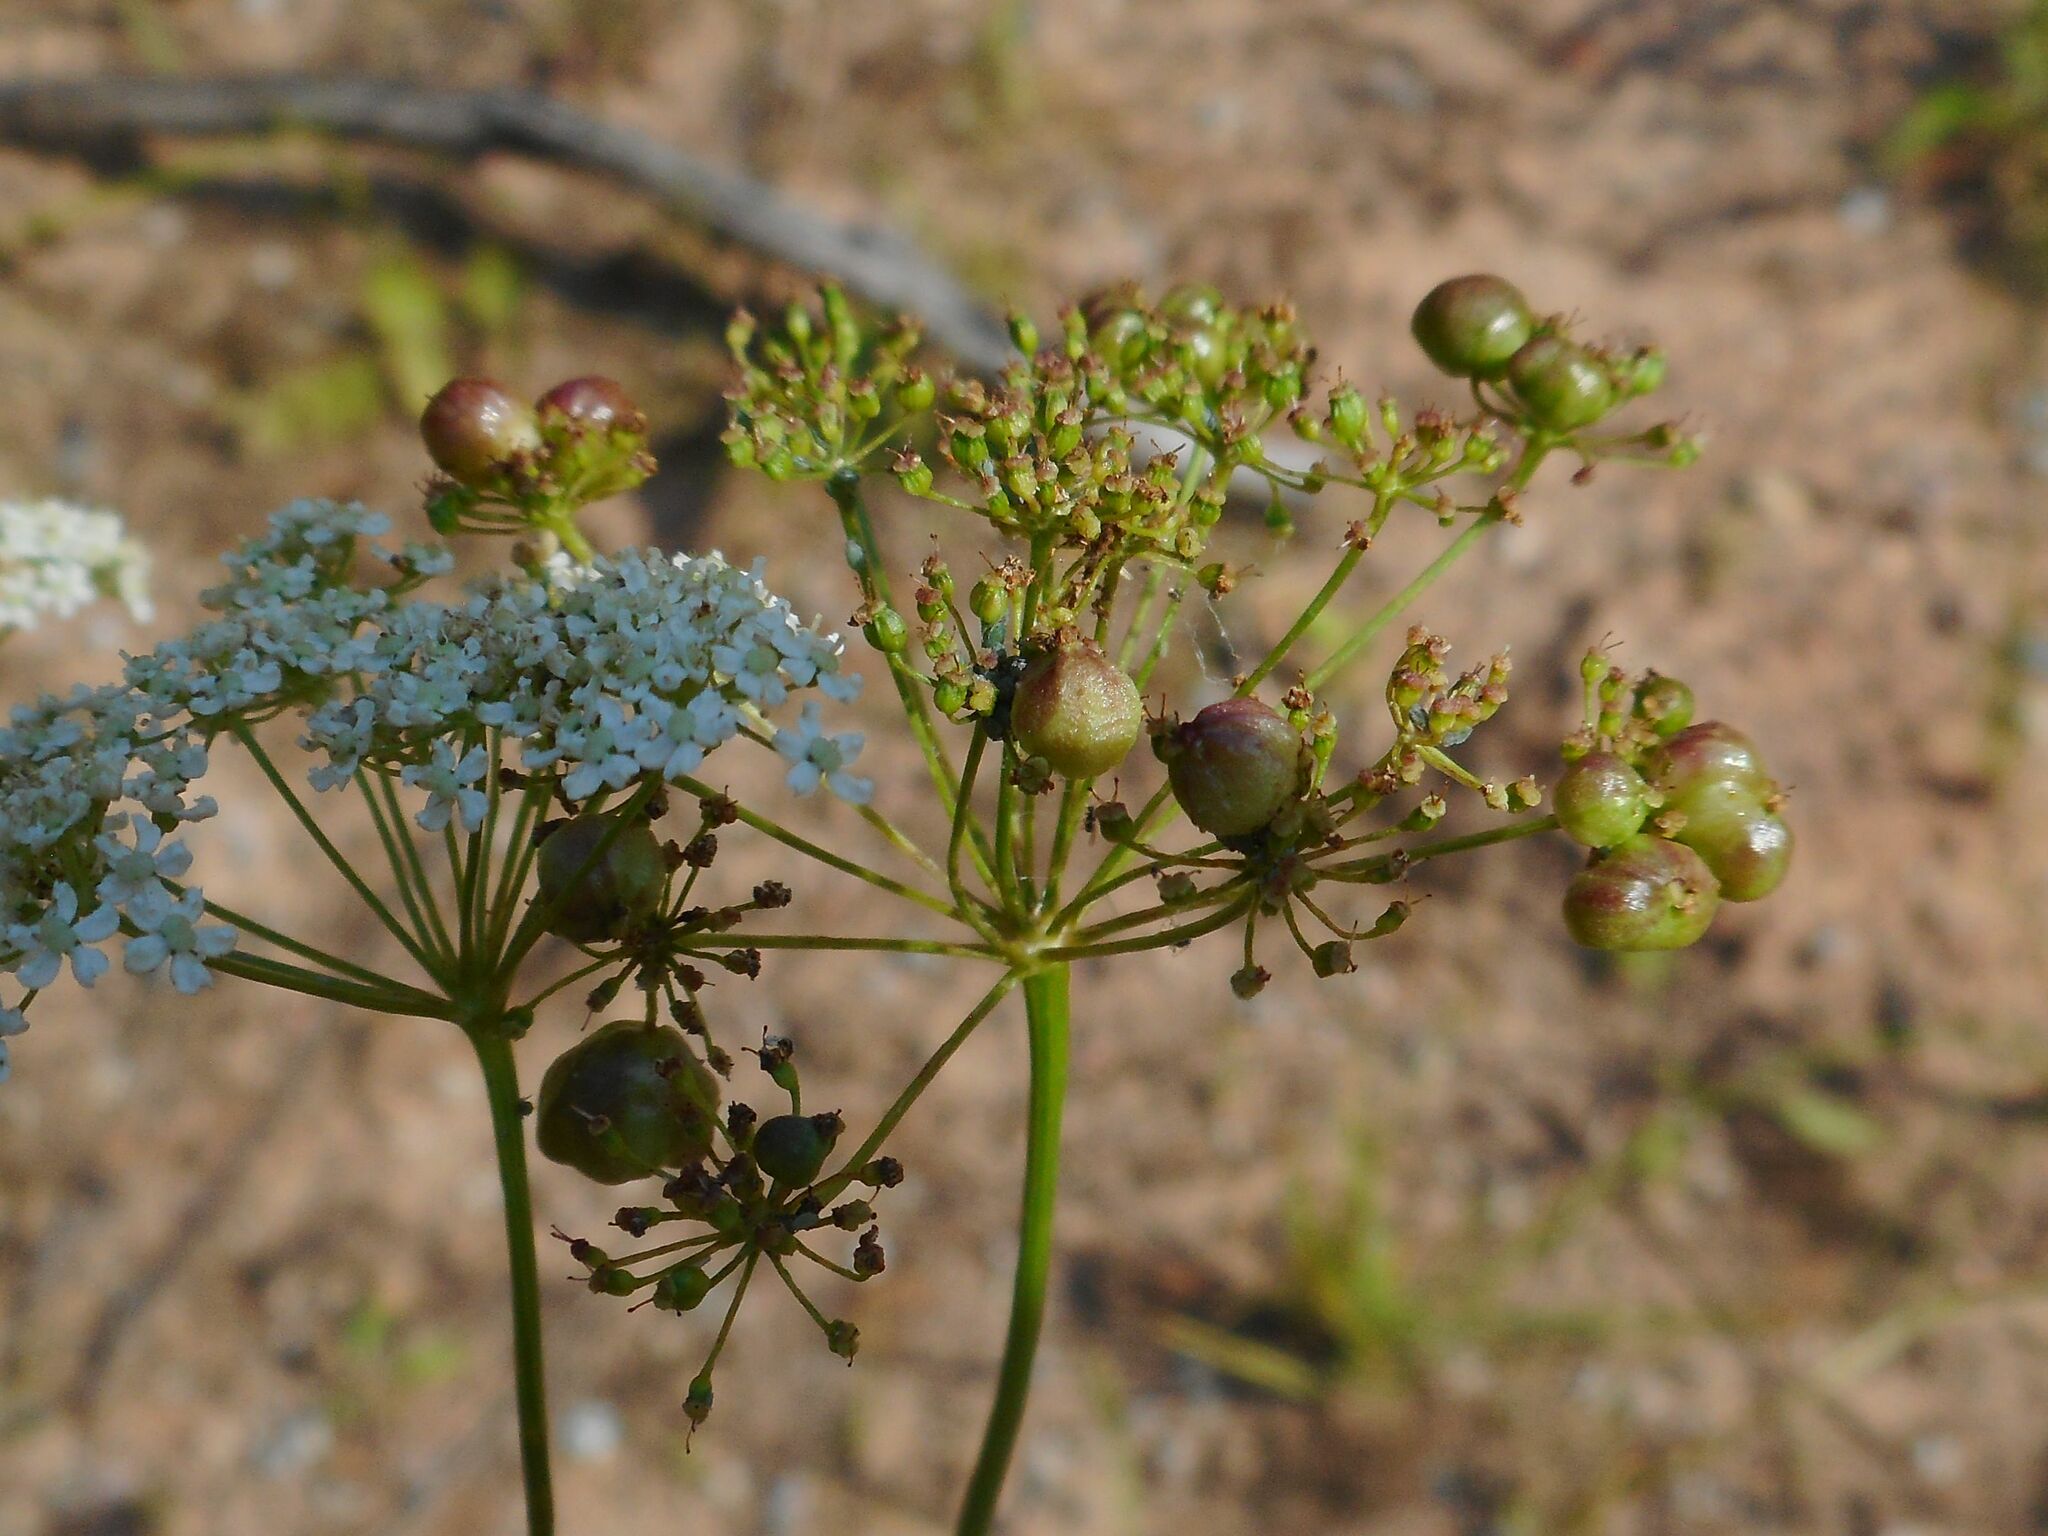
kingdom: Animalia
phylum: Arthropoda
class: Insecta
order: Diptera
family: Cecidomyiidae
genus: Kiefferia
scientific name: Kiefferia pericarpiicola
